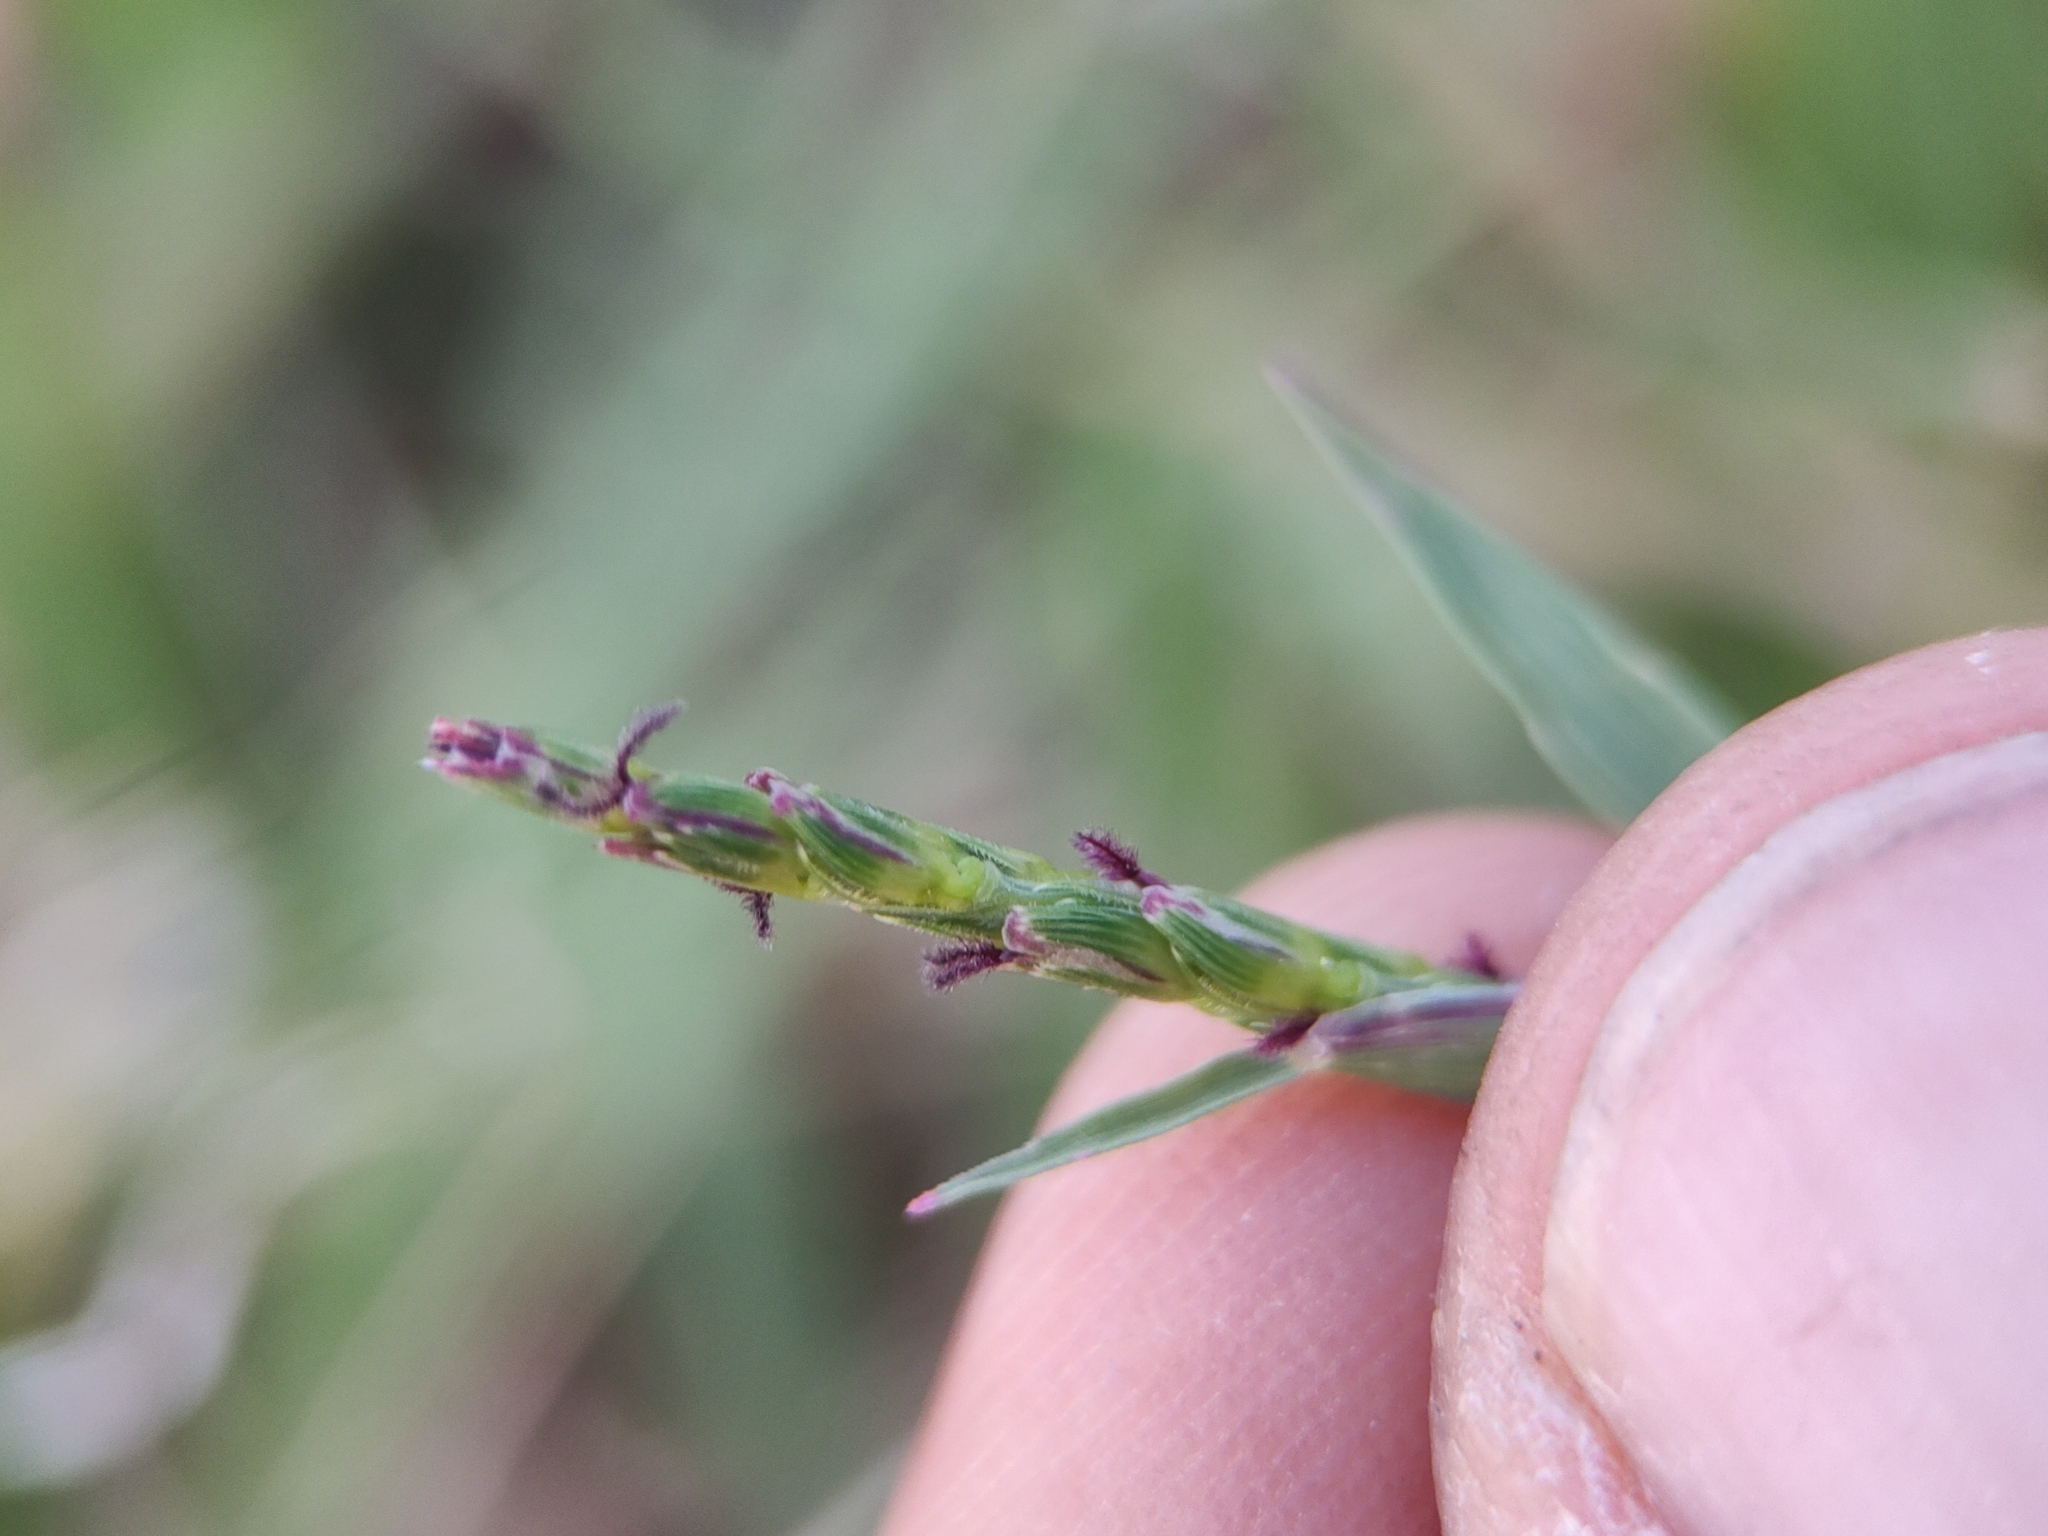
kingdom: Plantae
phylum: Tracheophyta
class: Liliopsida
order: Poales
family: Poaceae
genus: Paspalum
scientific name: Paspalum distichum
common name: Knotgrass
